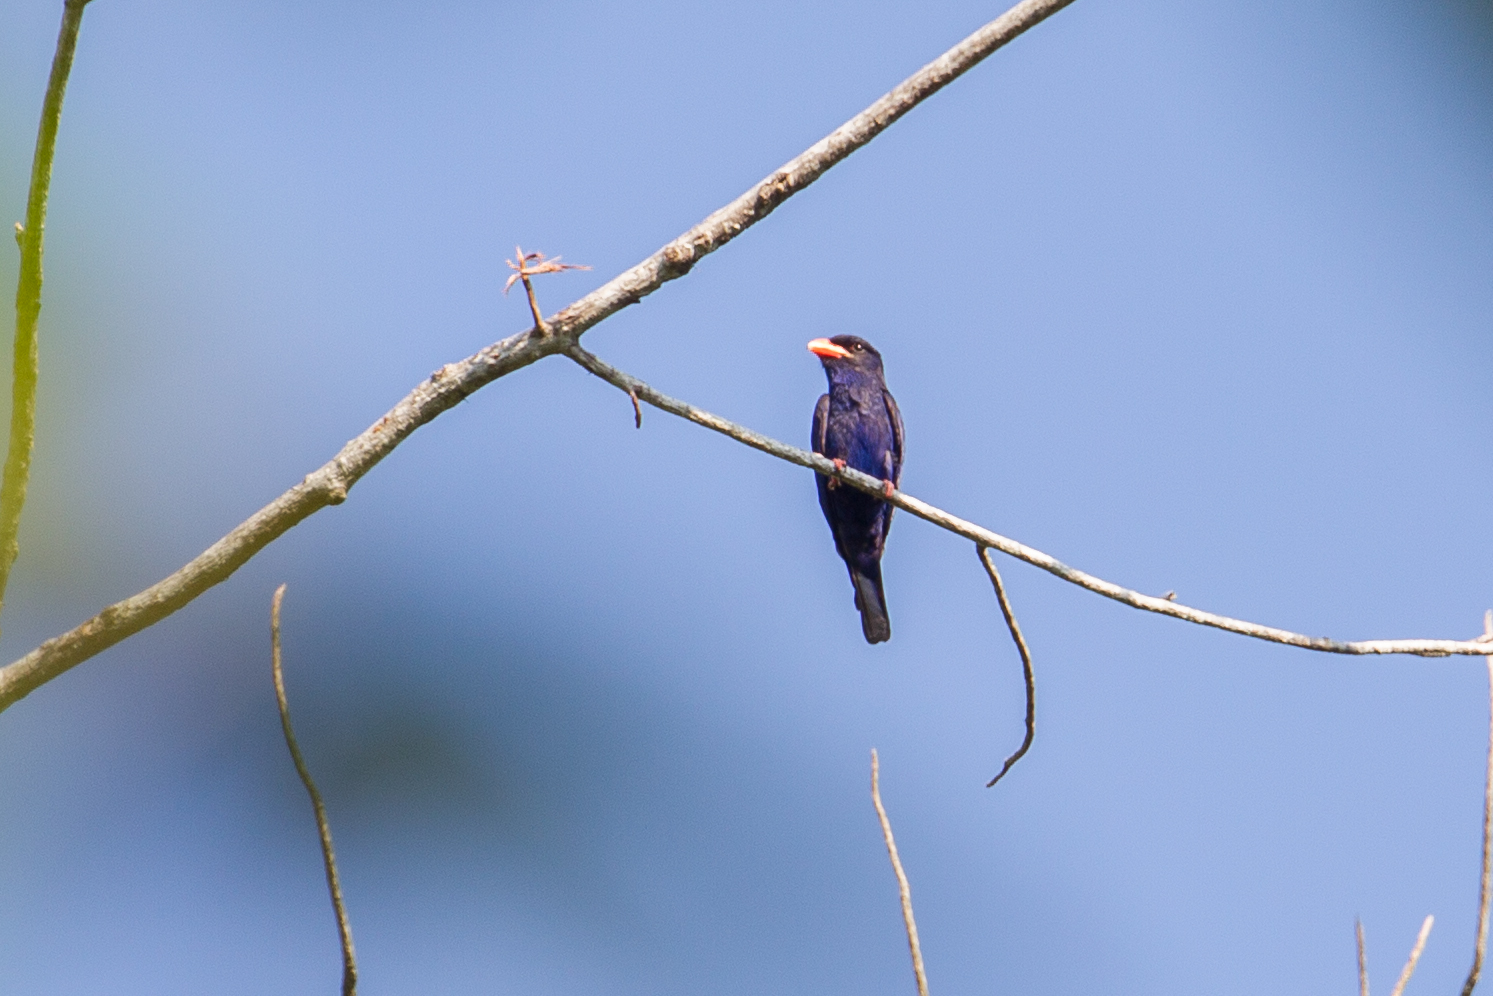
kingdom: Animalia
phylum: Chordata
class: Aves
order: Coraciiformes
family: Coraciidae
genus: Eurystomus
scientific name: Eurystomus azureus
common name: Azure dollarbird
